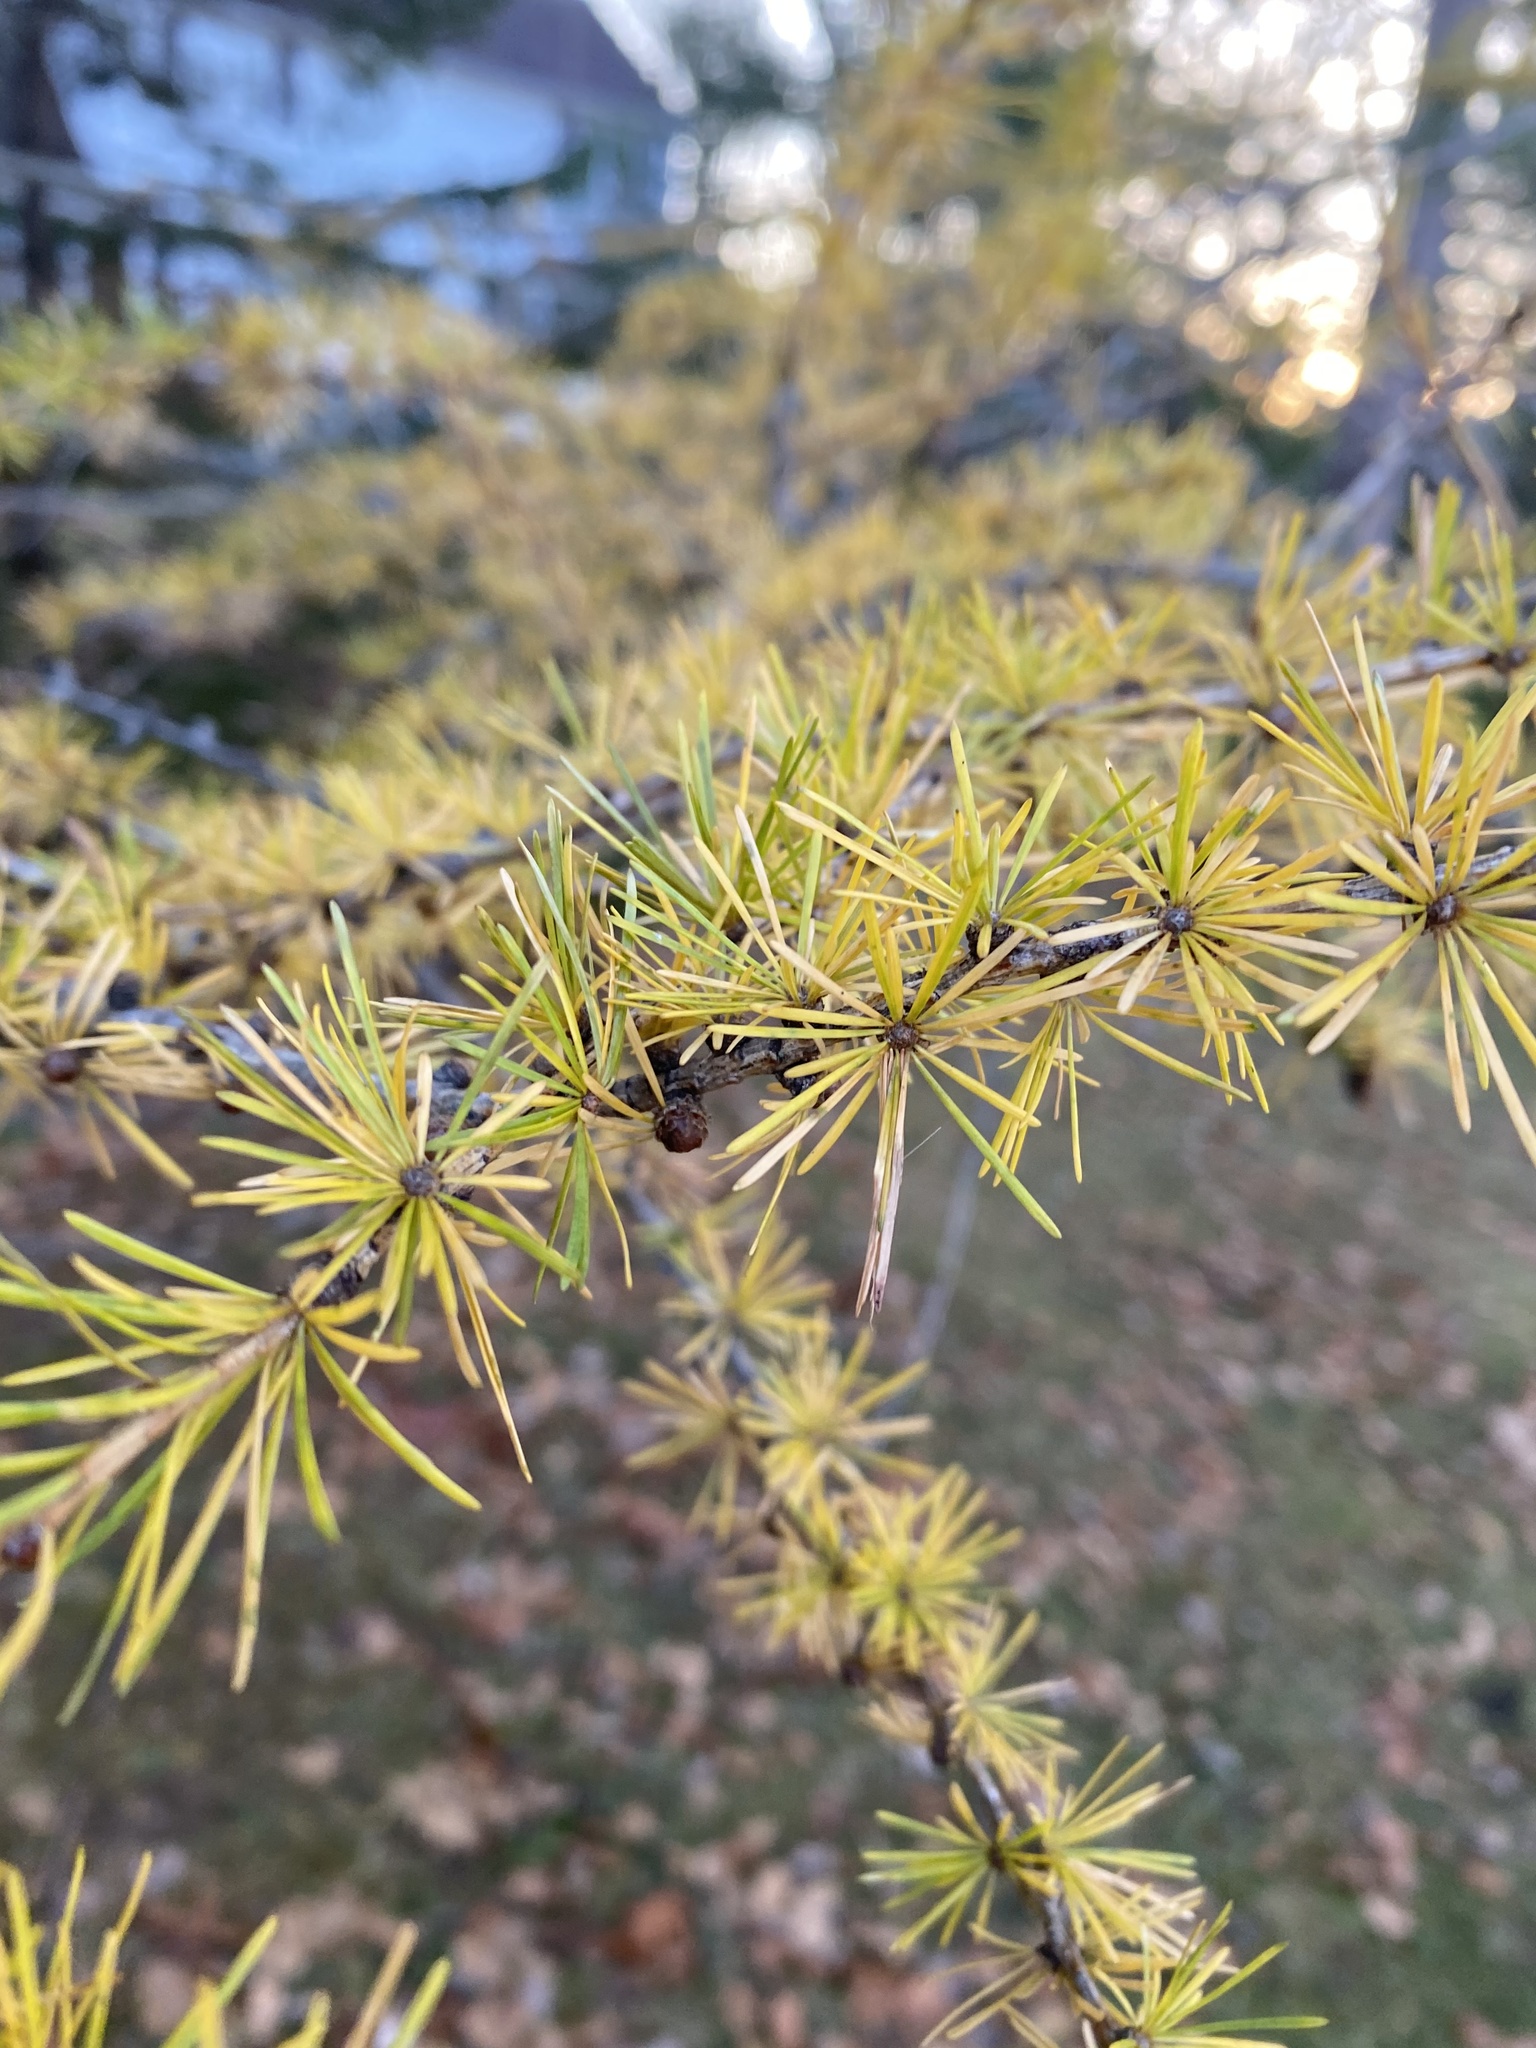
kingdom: Plantae
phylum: Tracheophyta
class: Pinopsida
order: Pinales
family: Pinaceae
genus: Larix
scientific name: Larix laricina
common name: American larch
